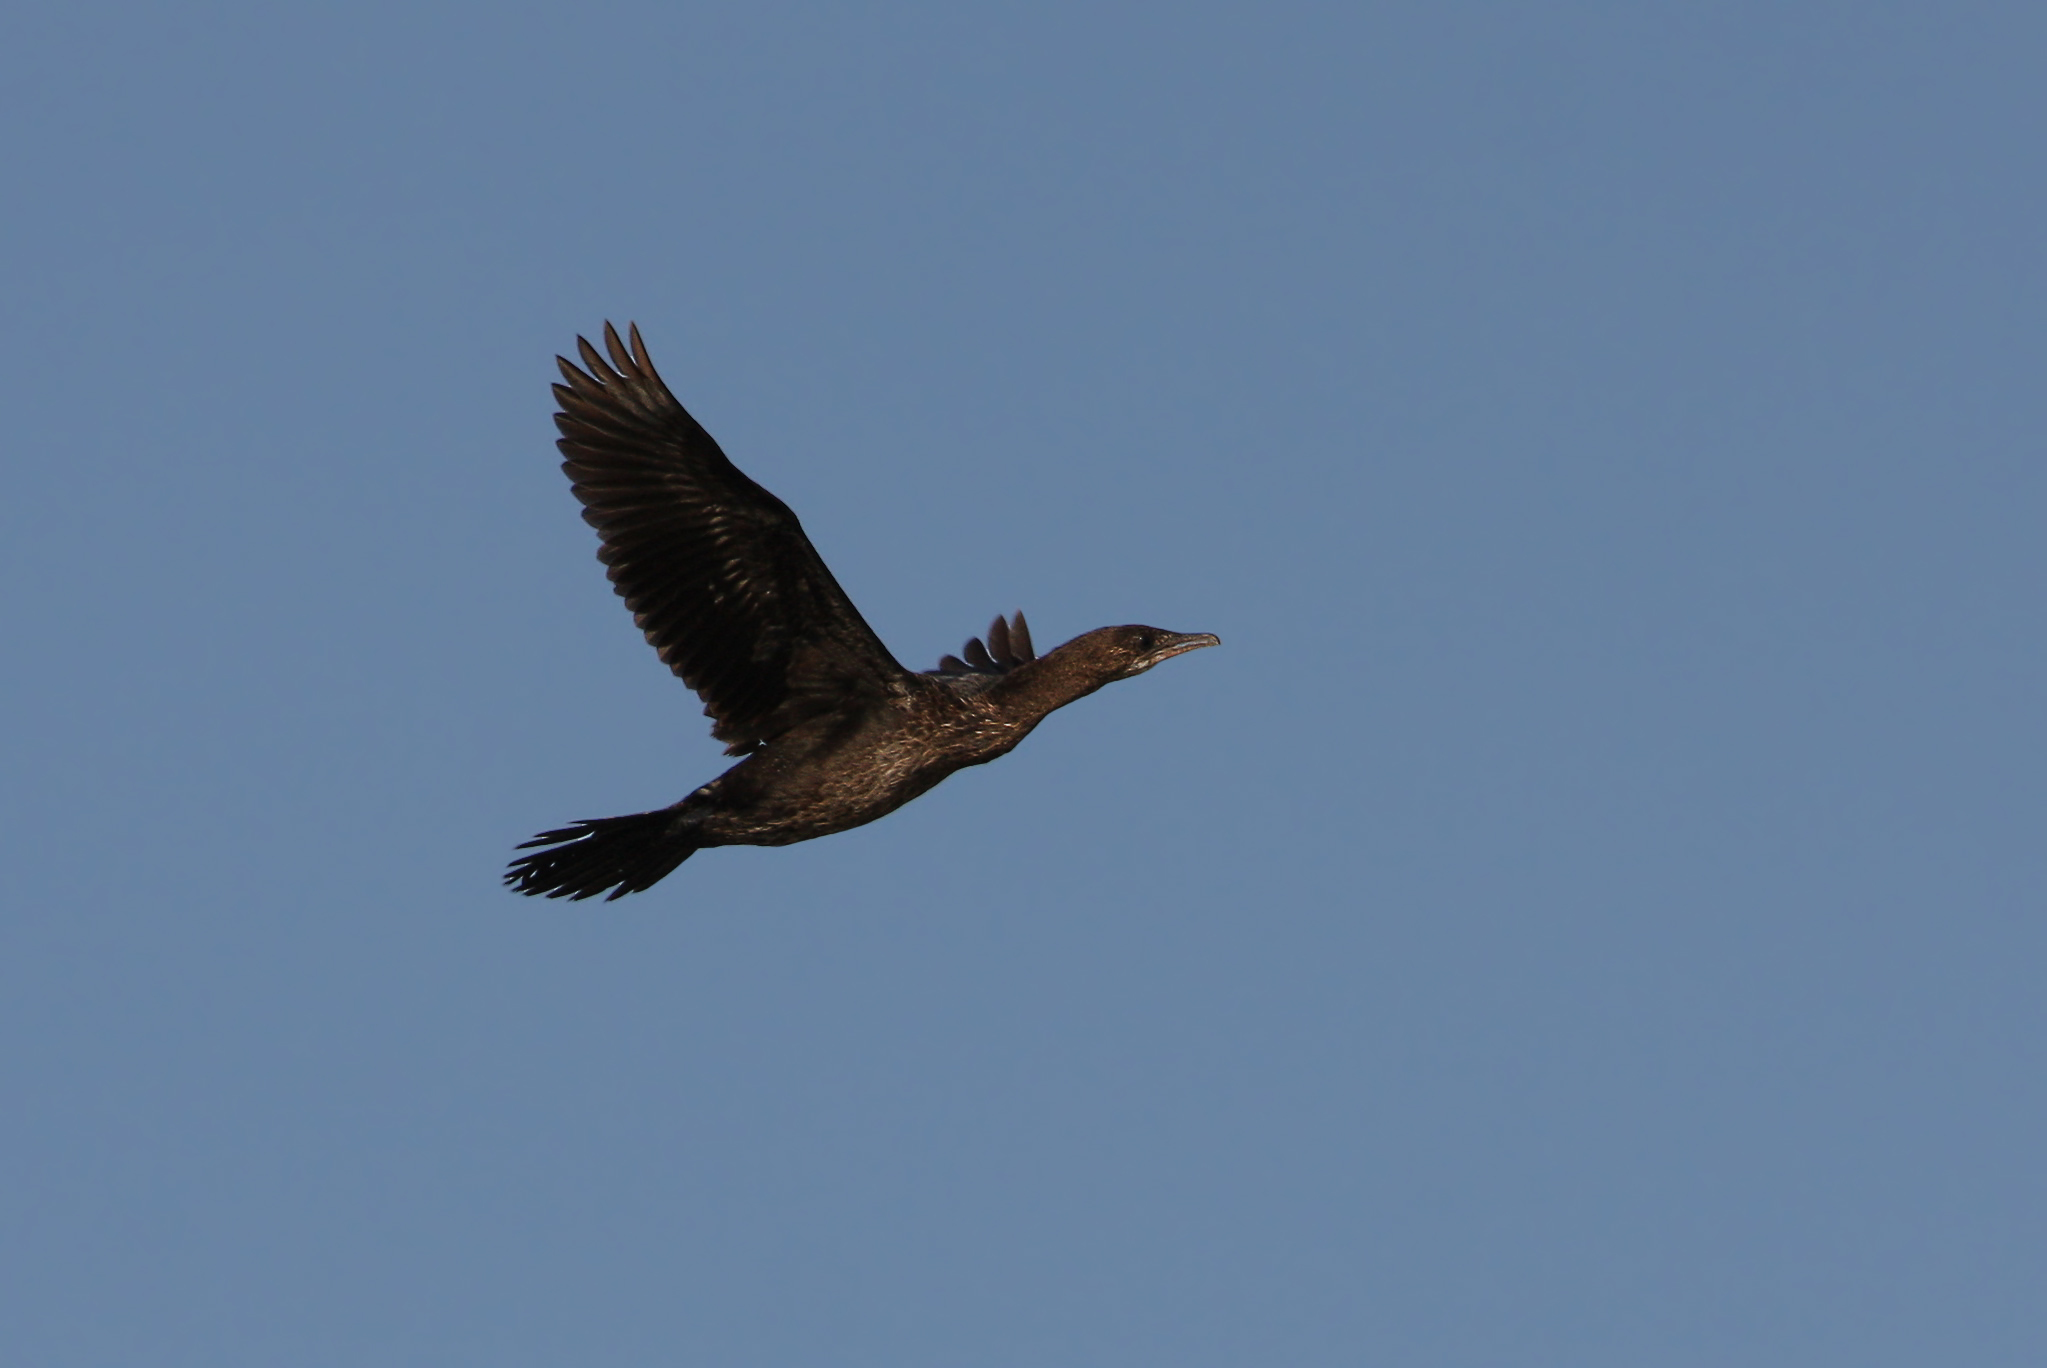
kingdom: Animalia
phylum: Chordata
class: Aves
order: Suliformes
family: Phalacrocoracidae
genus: Microcarbo
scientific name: Microcarbo pygmaeus
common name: Pygmy cormorant
